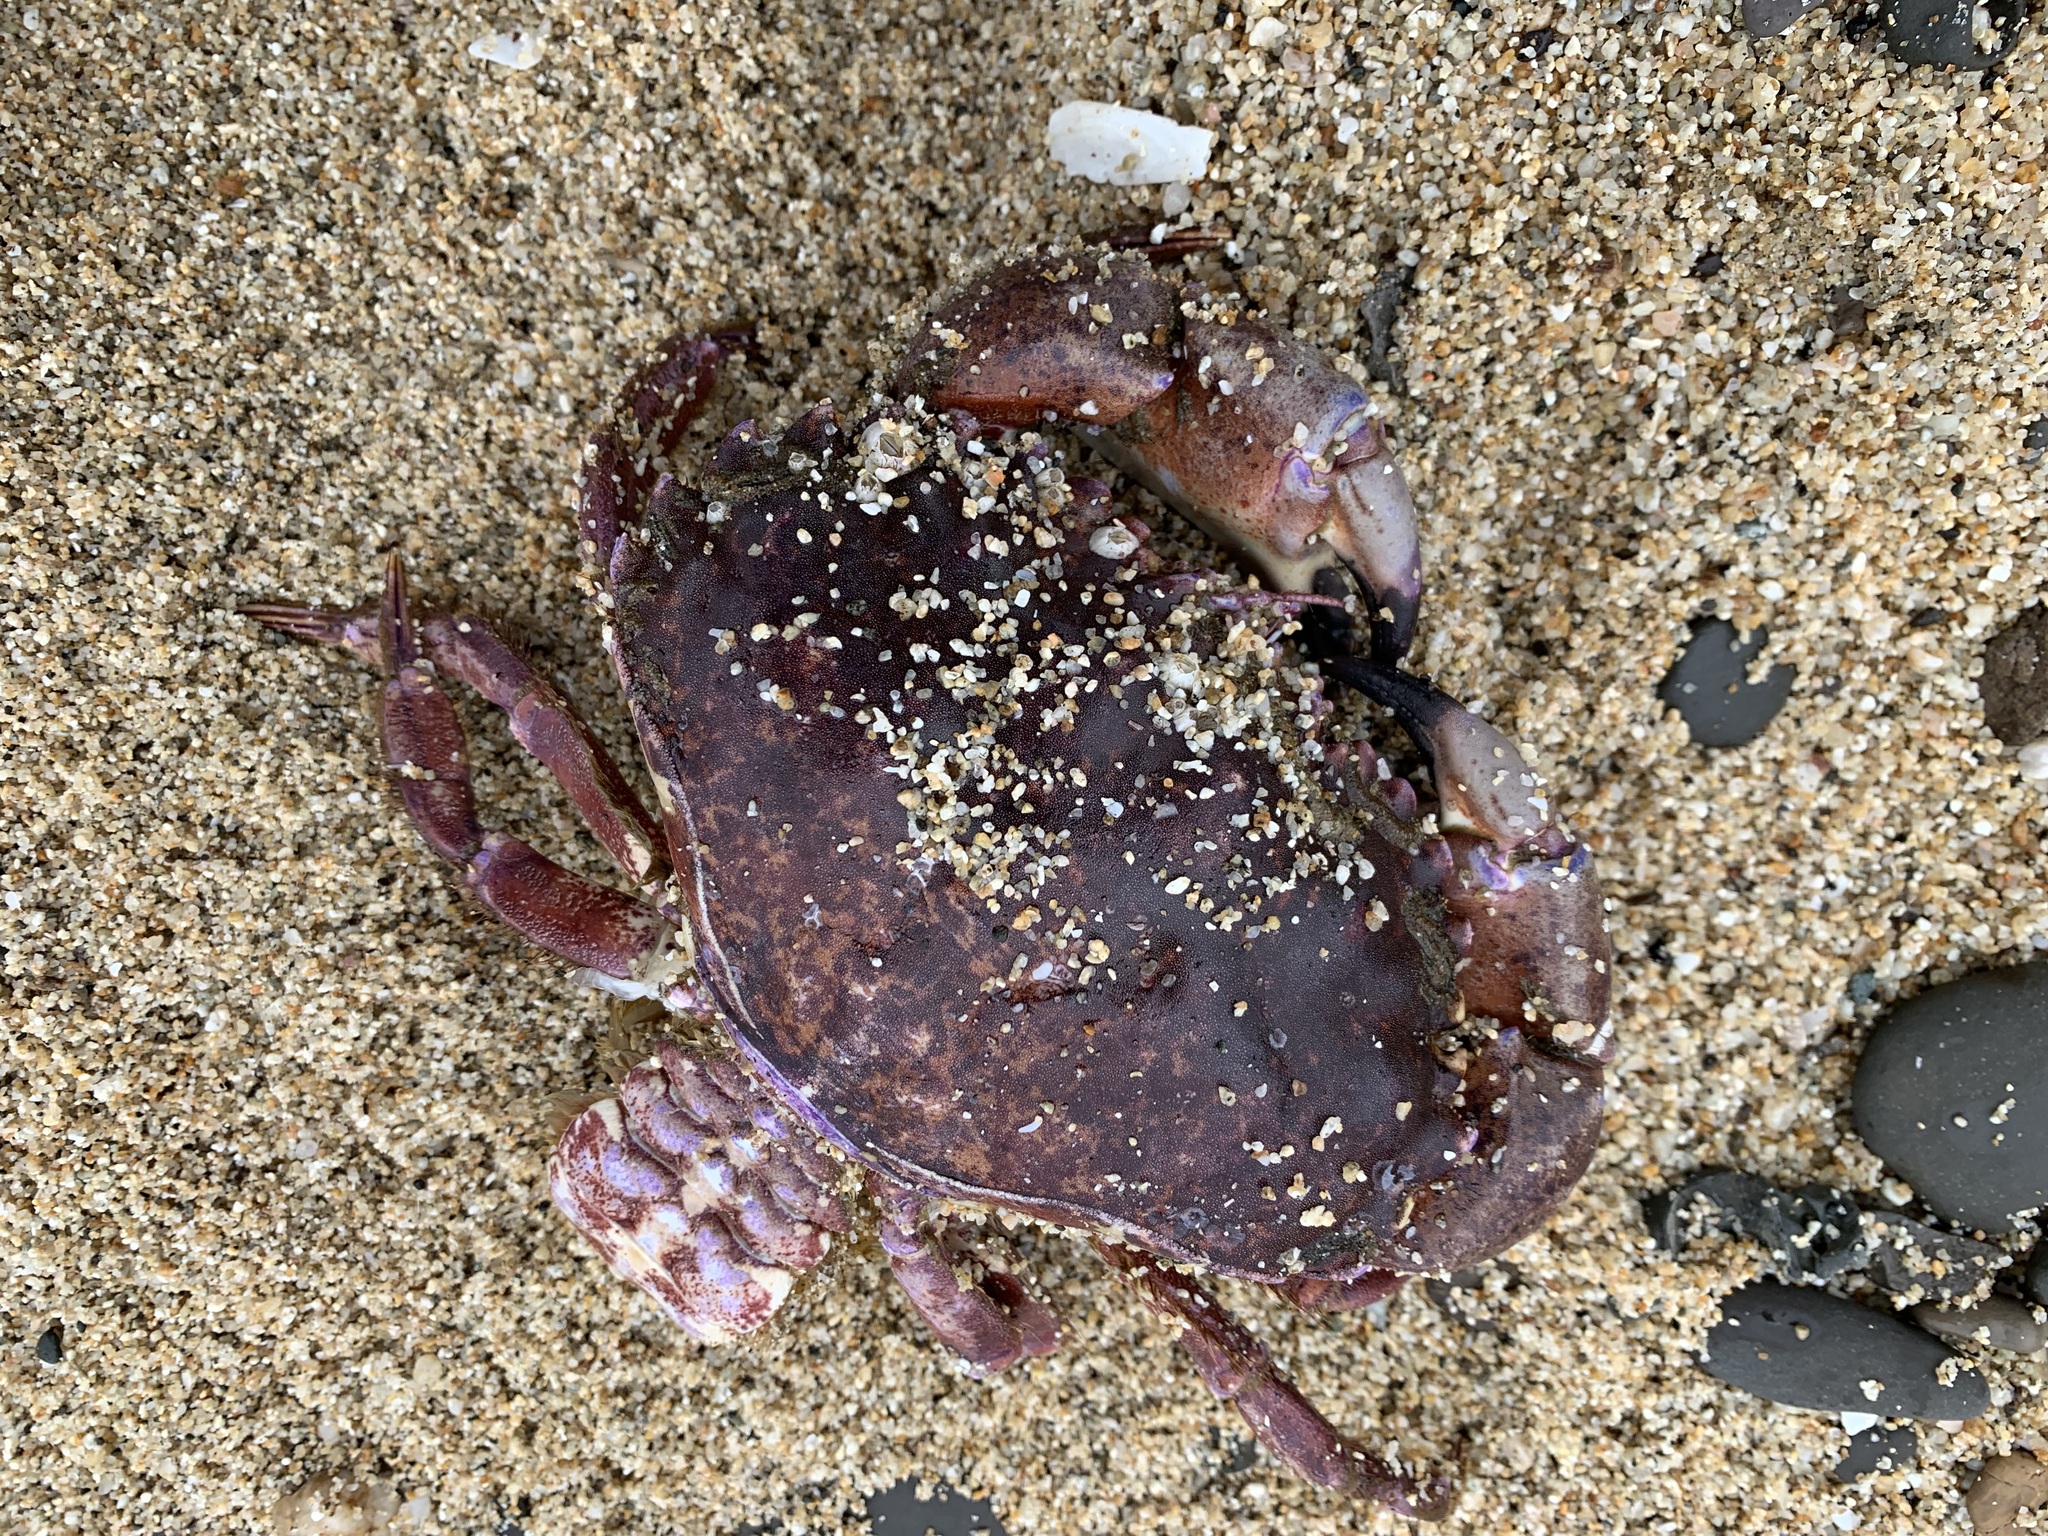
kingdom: Animalia
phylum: Arthropoda
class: Malacostraca
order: Decapoda
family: Cancridae
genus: Romaleon
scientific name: Romaleon antennarium
